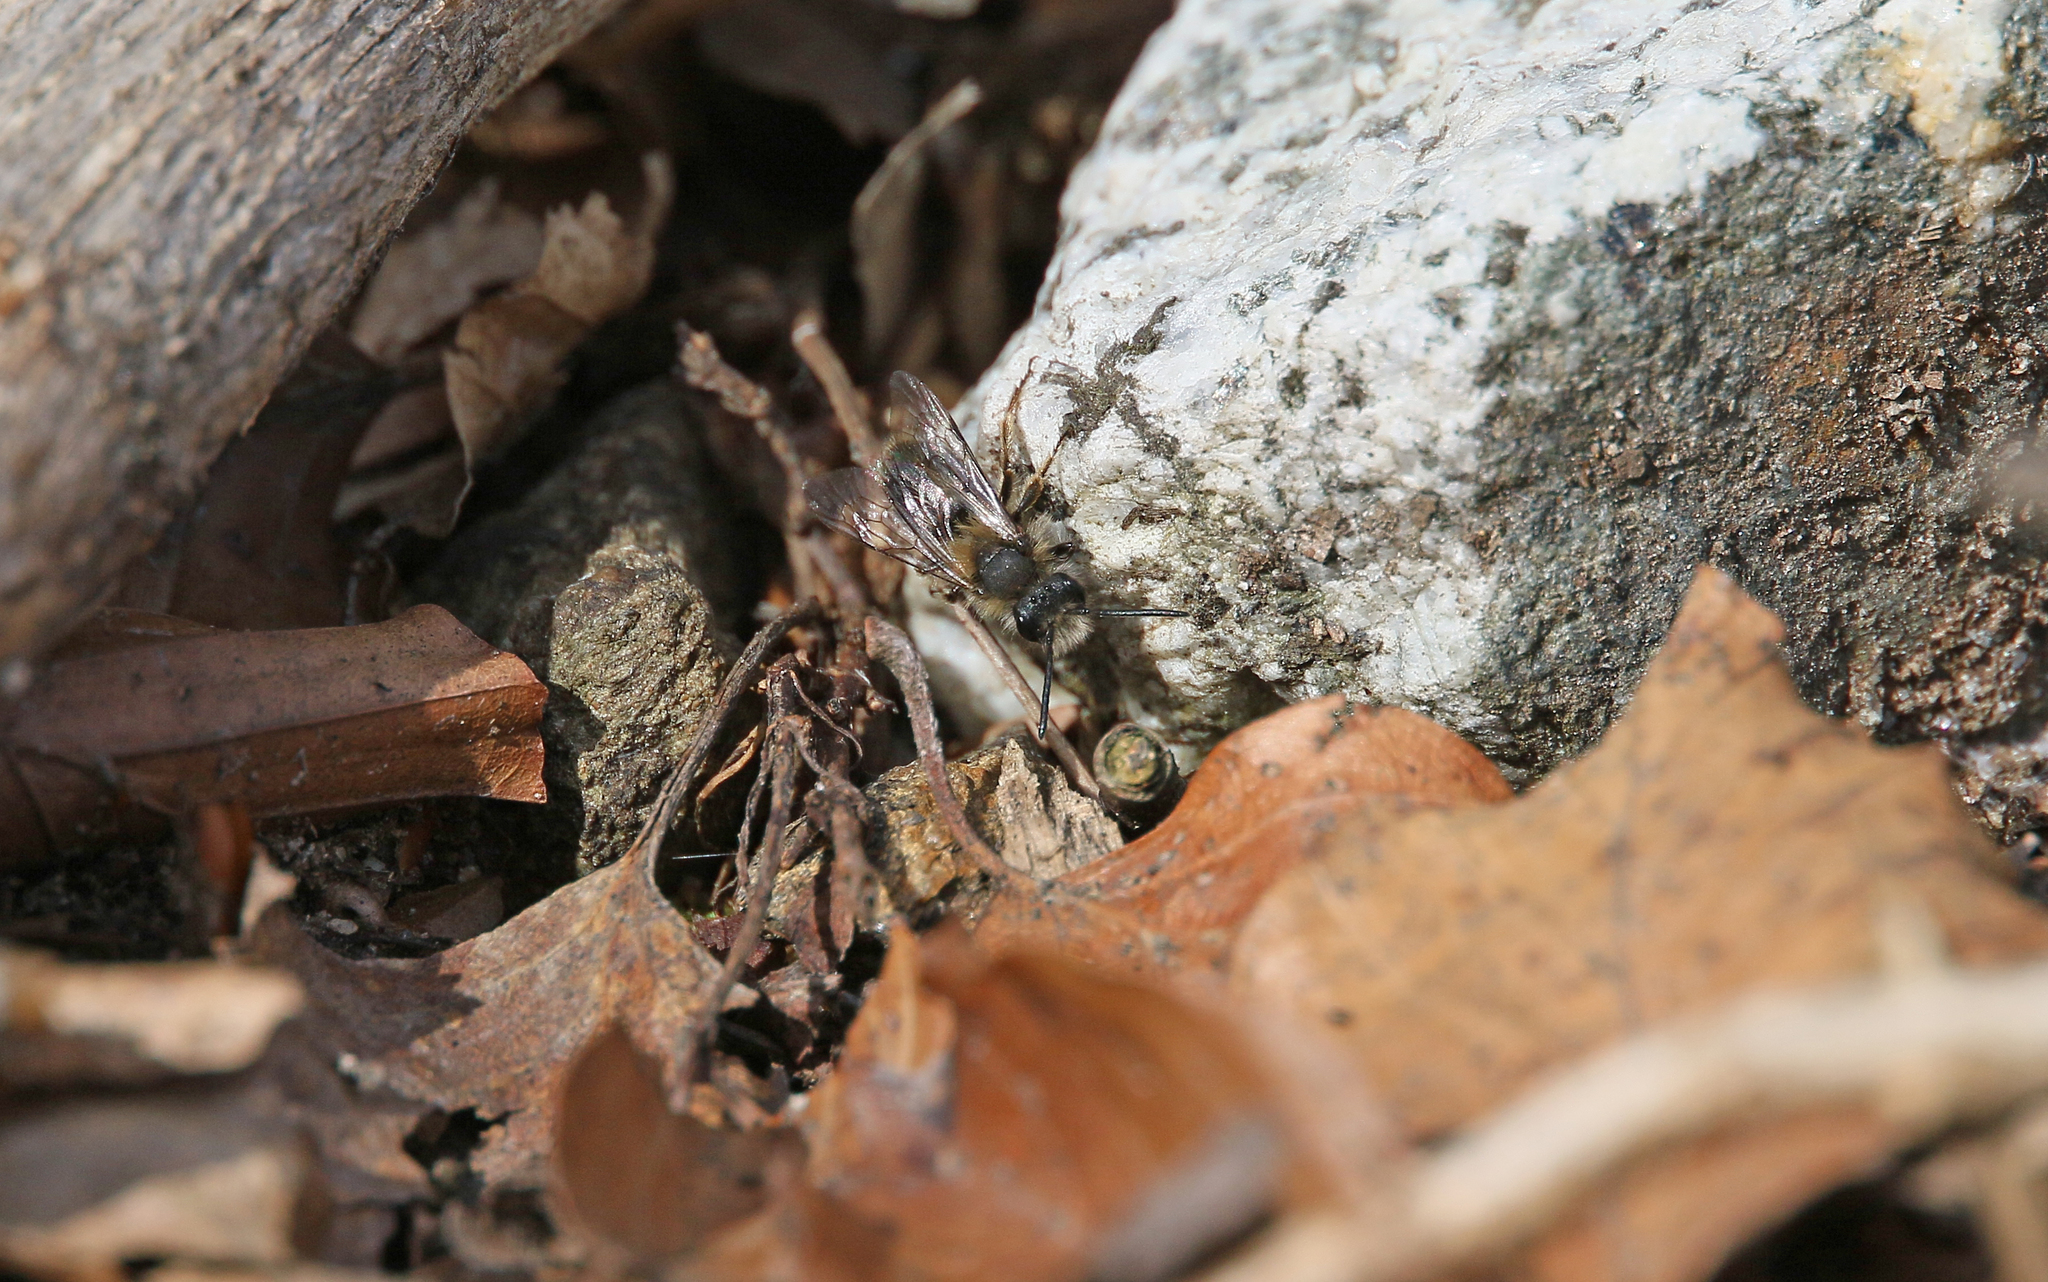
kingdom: Animalia
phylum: Arthropoda
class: Insecta
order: Hymenoptera
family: Andrenidae
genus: Andrena
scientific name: Andrena clarkella
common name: Clarke's mining bee
